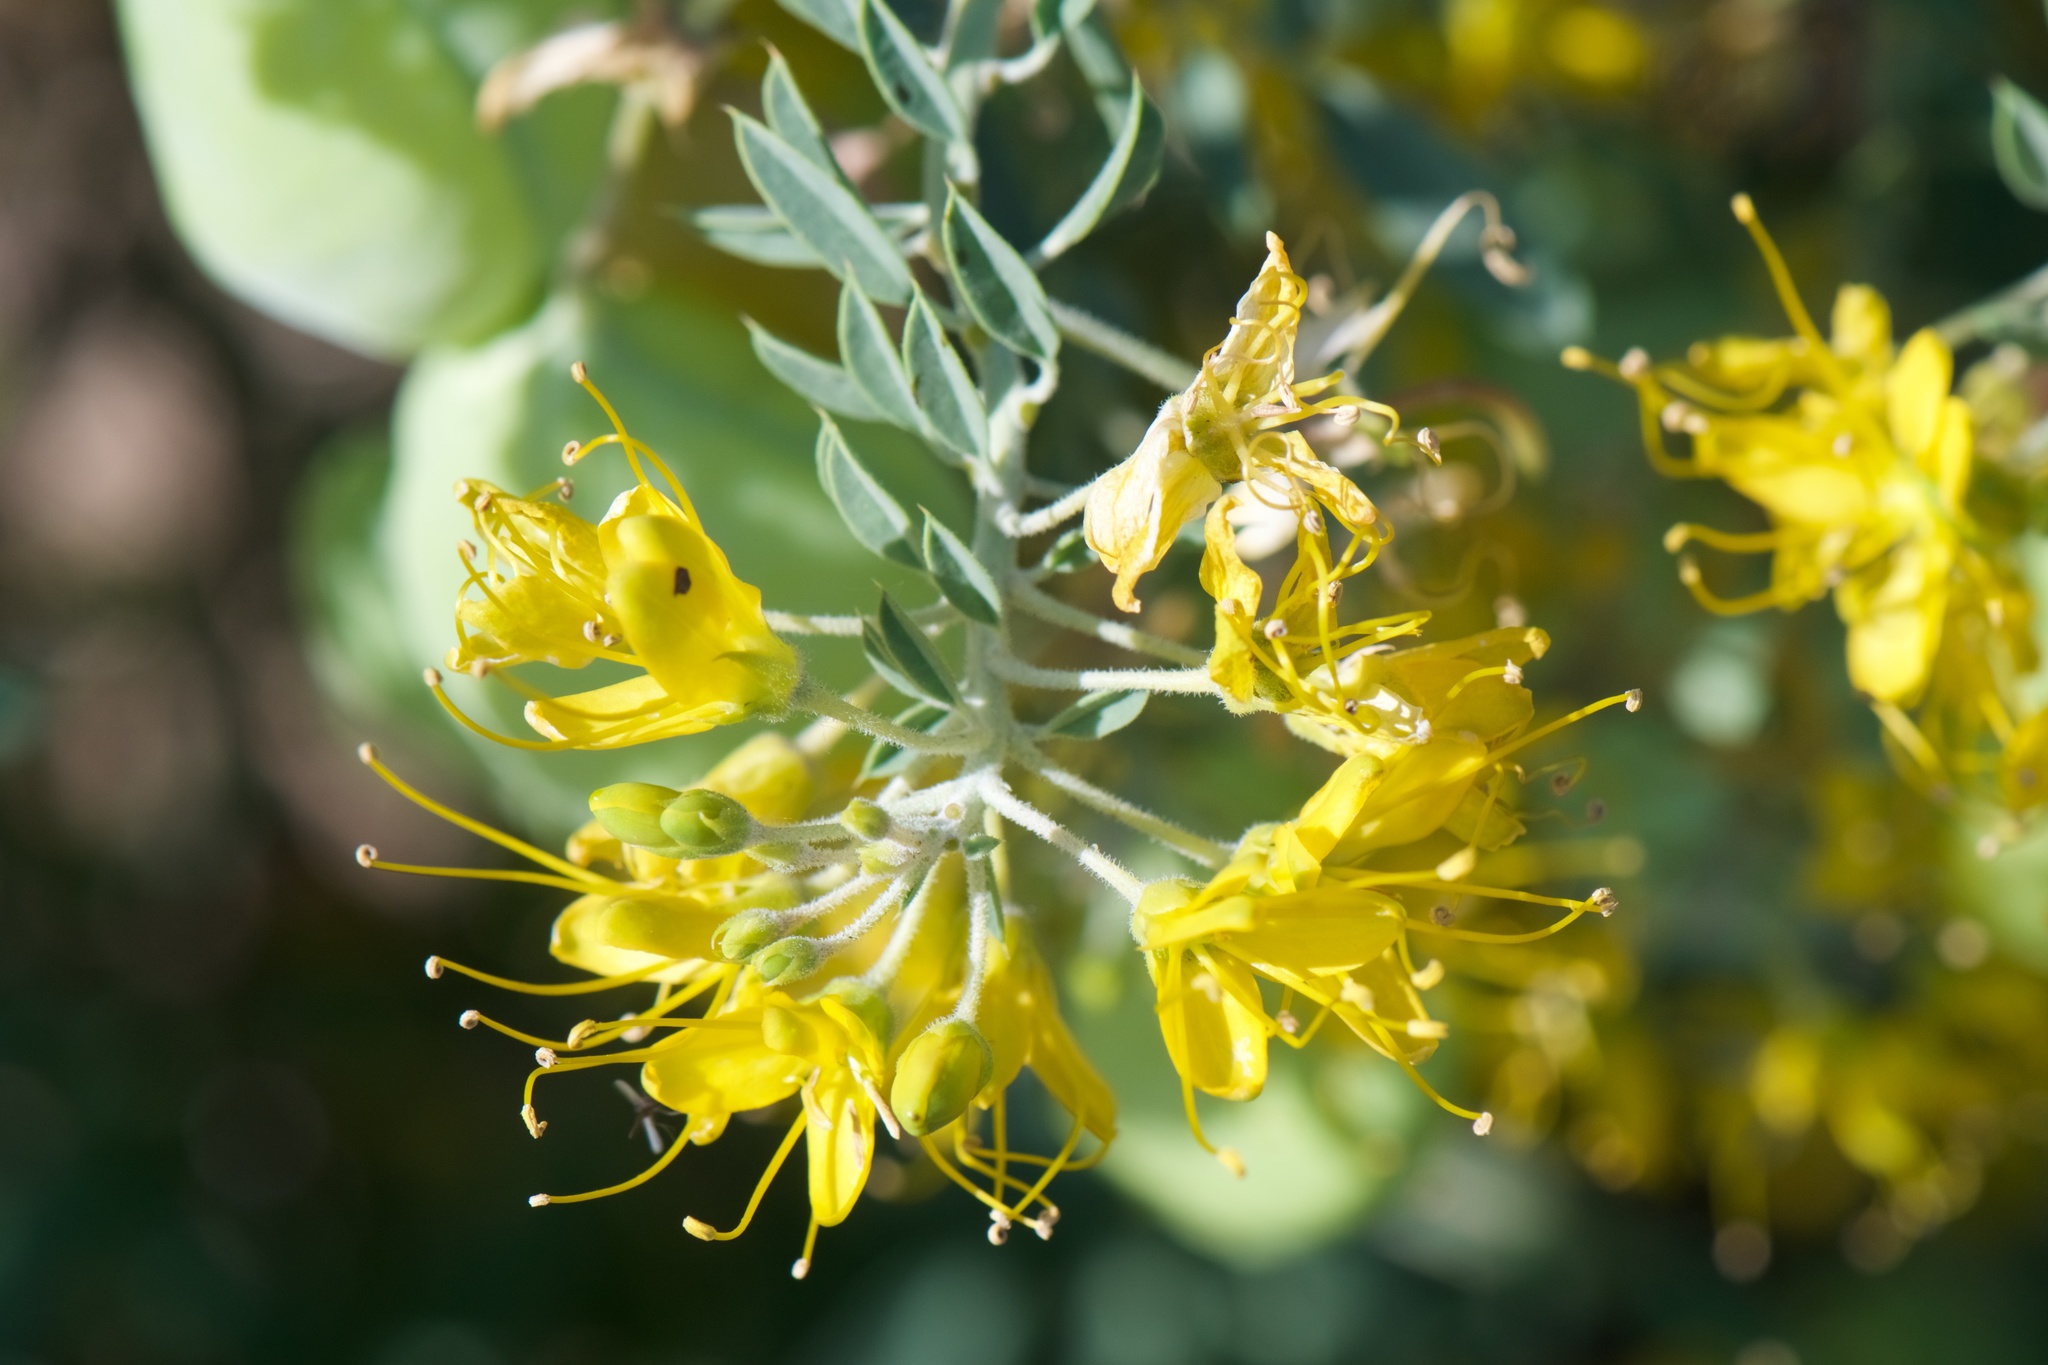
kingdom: Plantae
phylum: Tracheophyta
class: Magnoliopsida
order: Brassicales
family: Cleomaceae
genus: Cleomella
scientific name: Cleomella arborea
